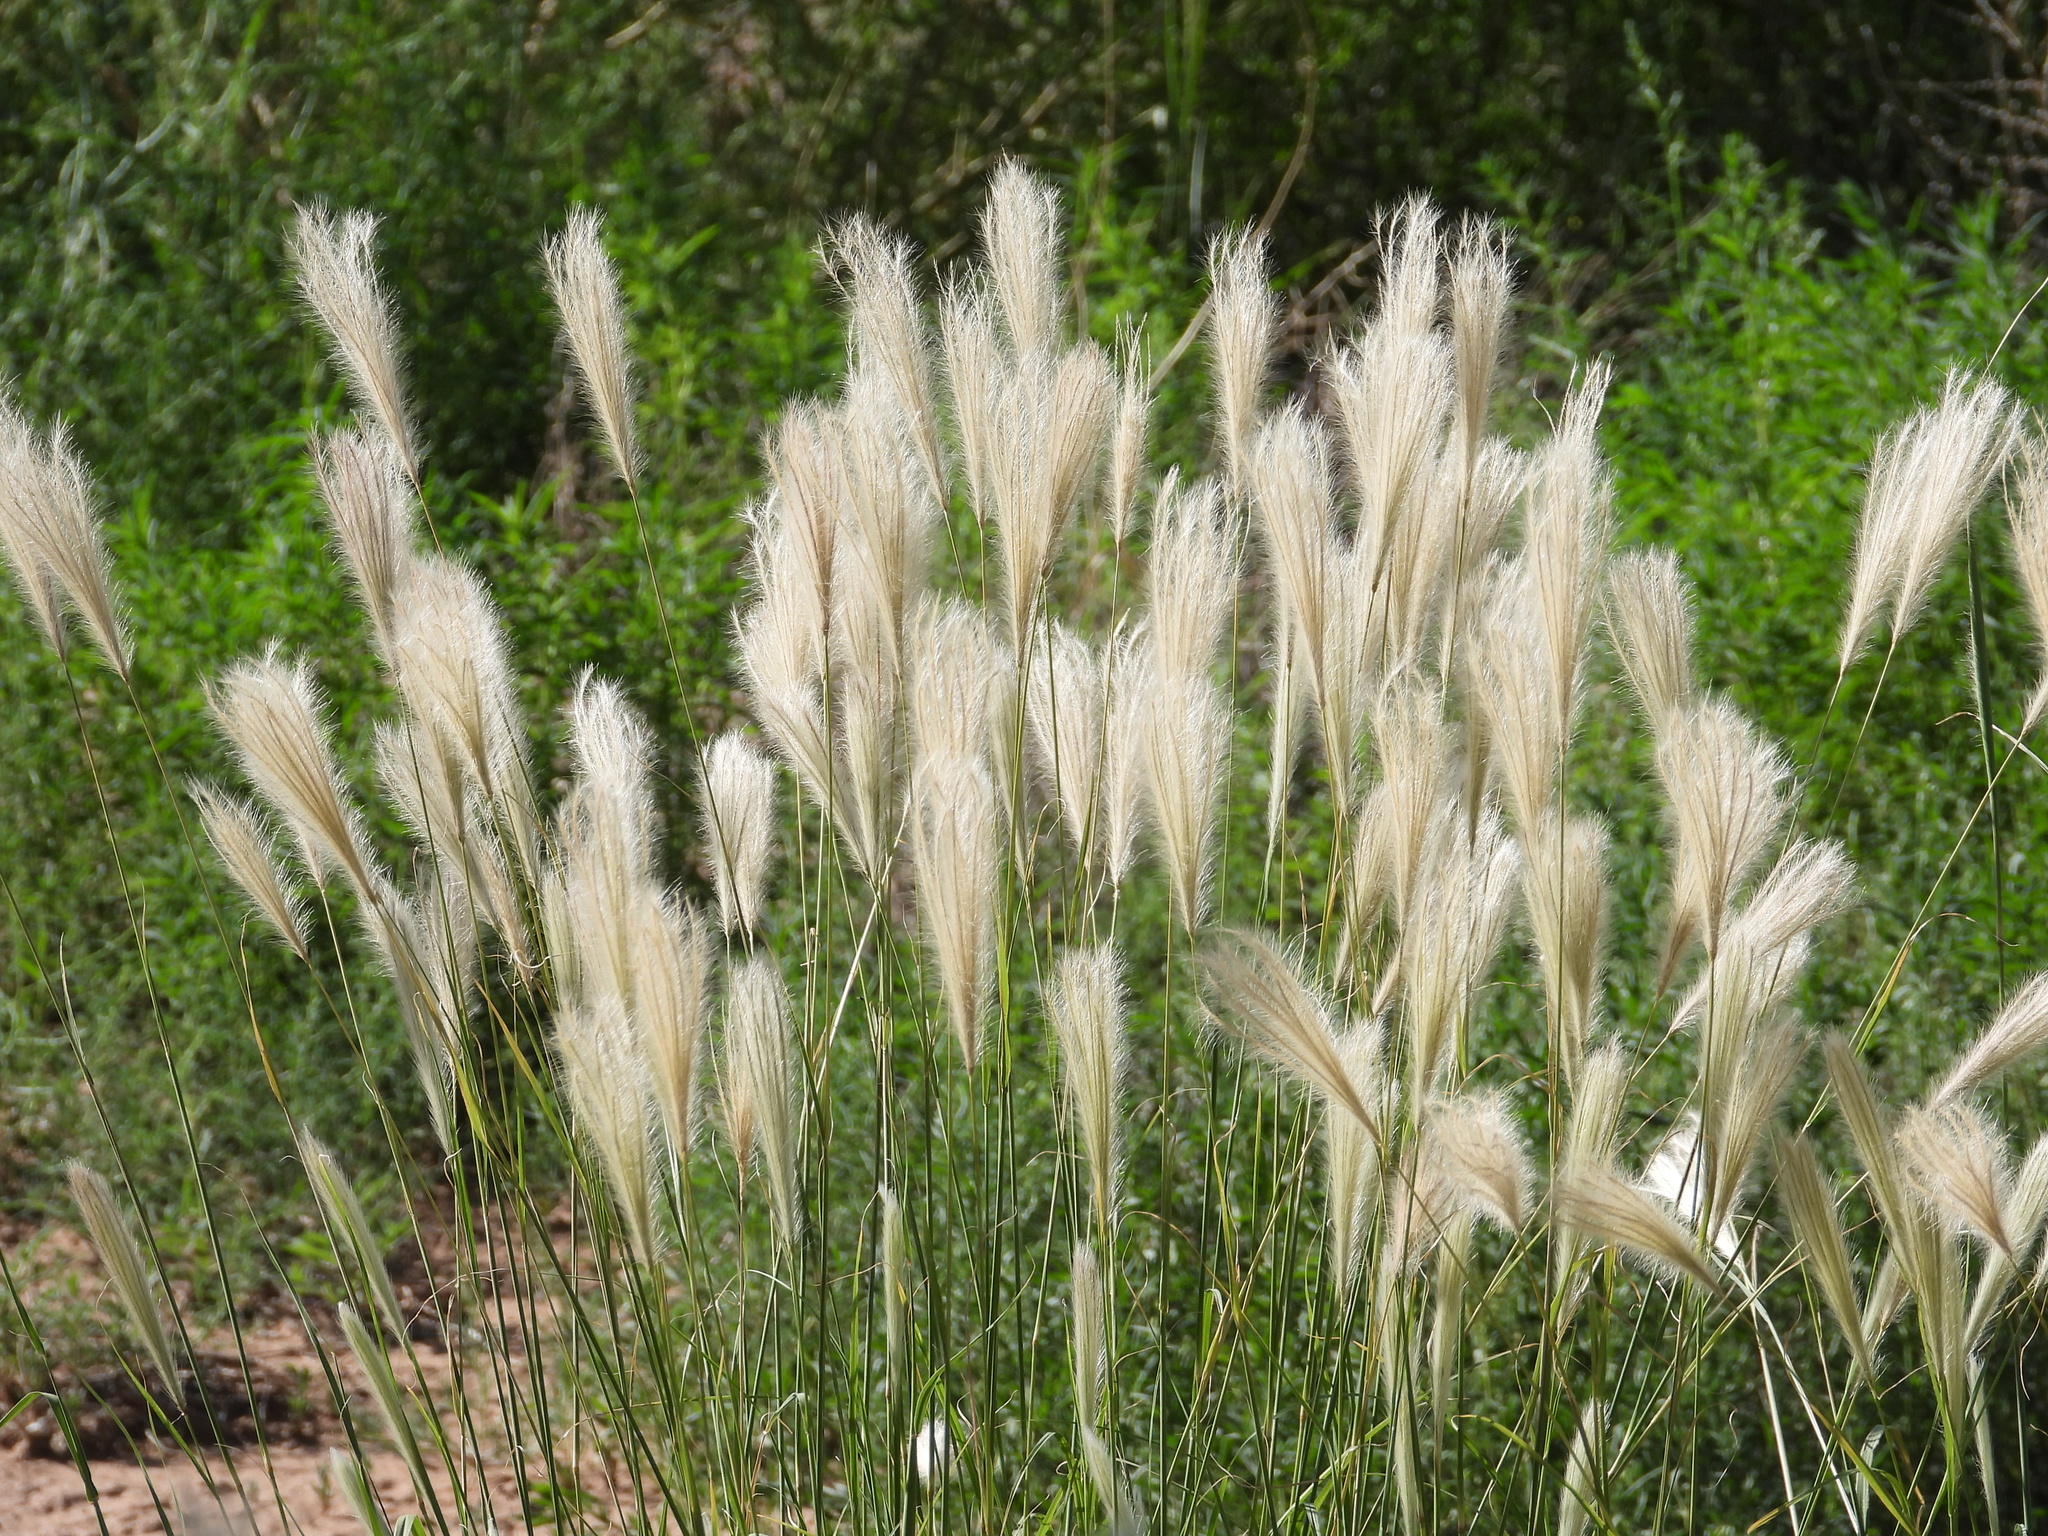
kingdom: Plantae
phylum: Tracheophyta
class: Liliopsida
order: Poales
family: Poaceae
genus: Chloris
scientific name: Chloris virgata
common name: Feathery rhodes-grass
